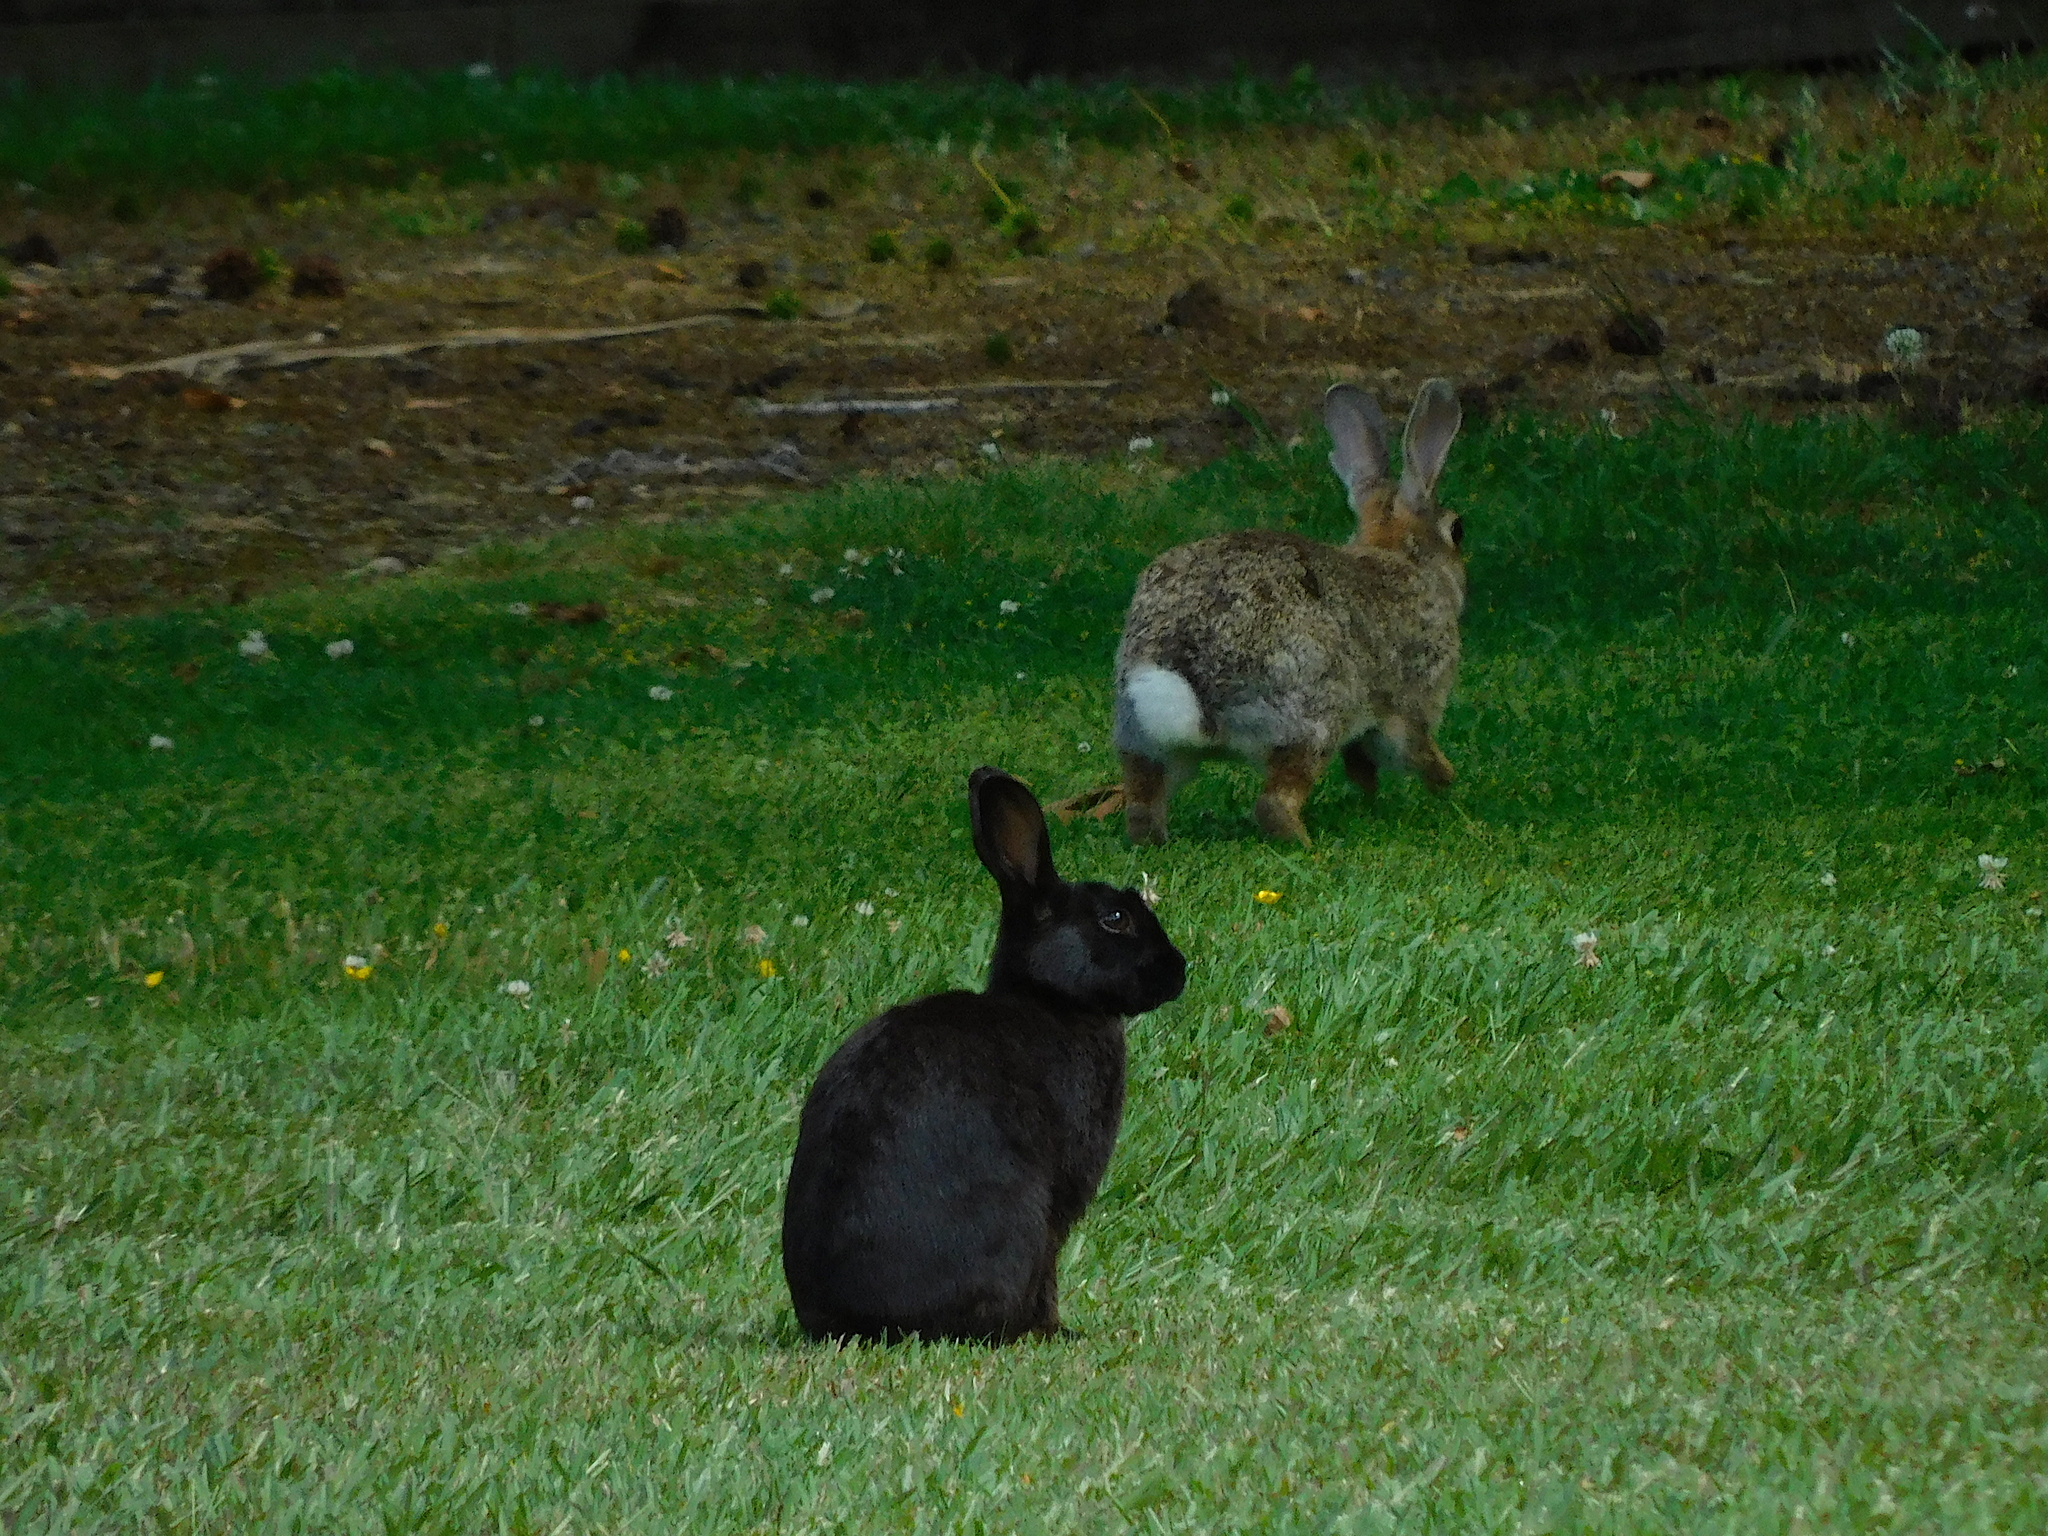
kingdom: Animalia
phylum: Chordata
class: Mammalia
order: Lagomorpha
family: Leporidae
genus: Oryctolagus
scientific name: Oryctolagus cuniculus
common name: European rabbit
